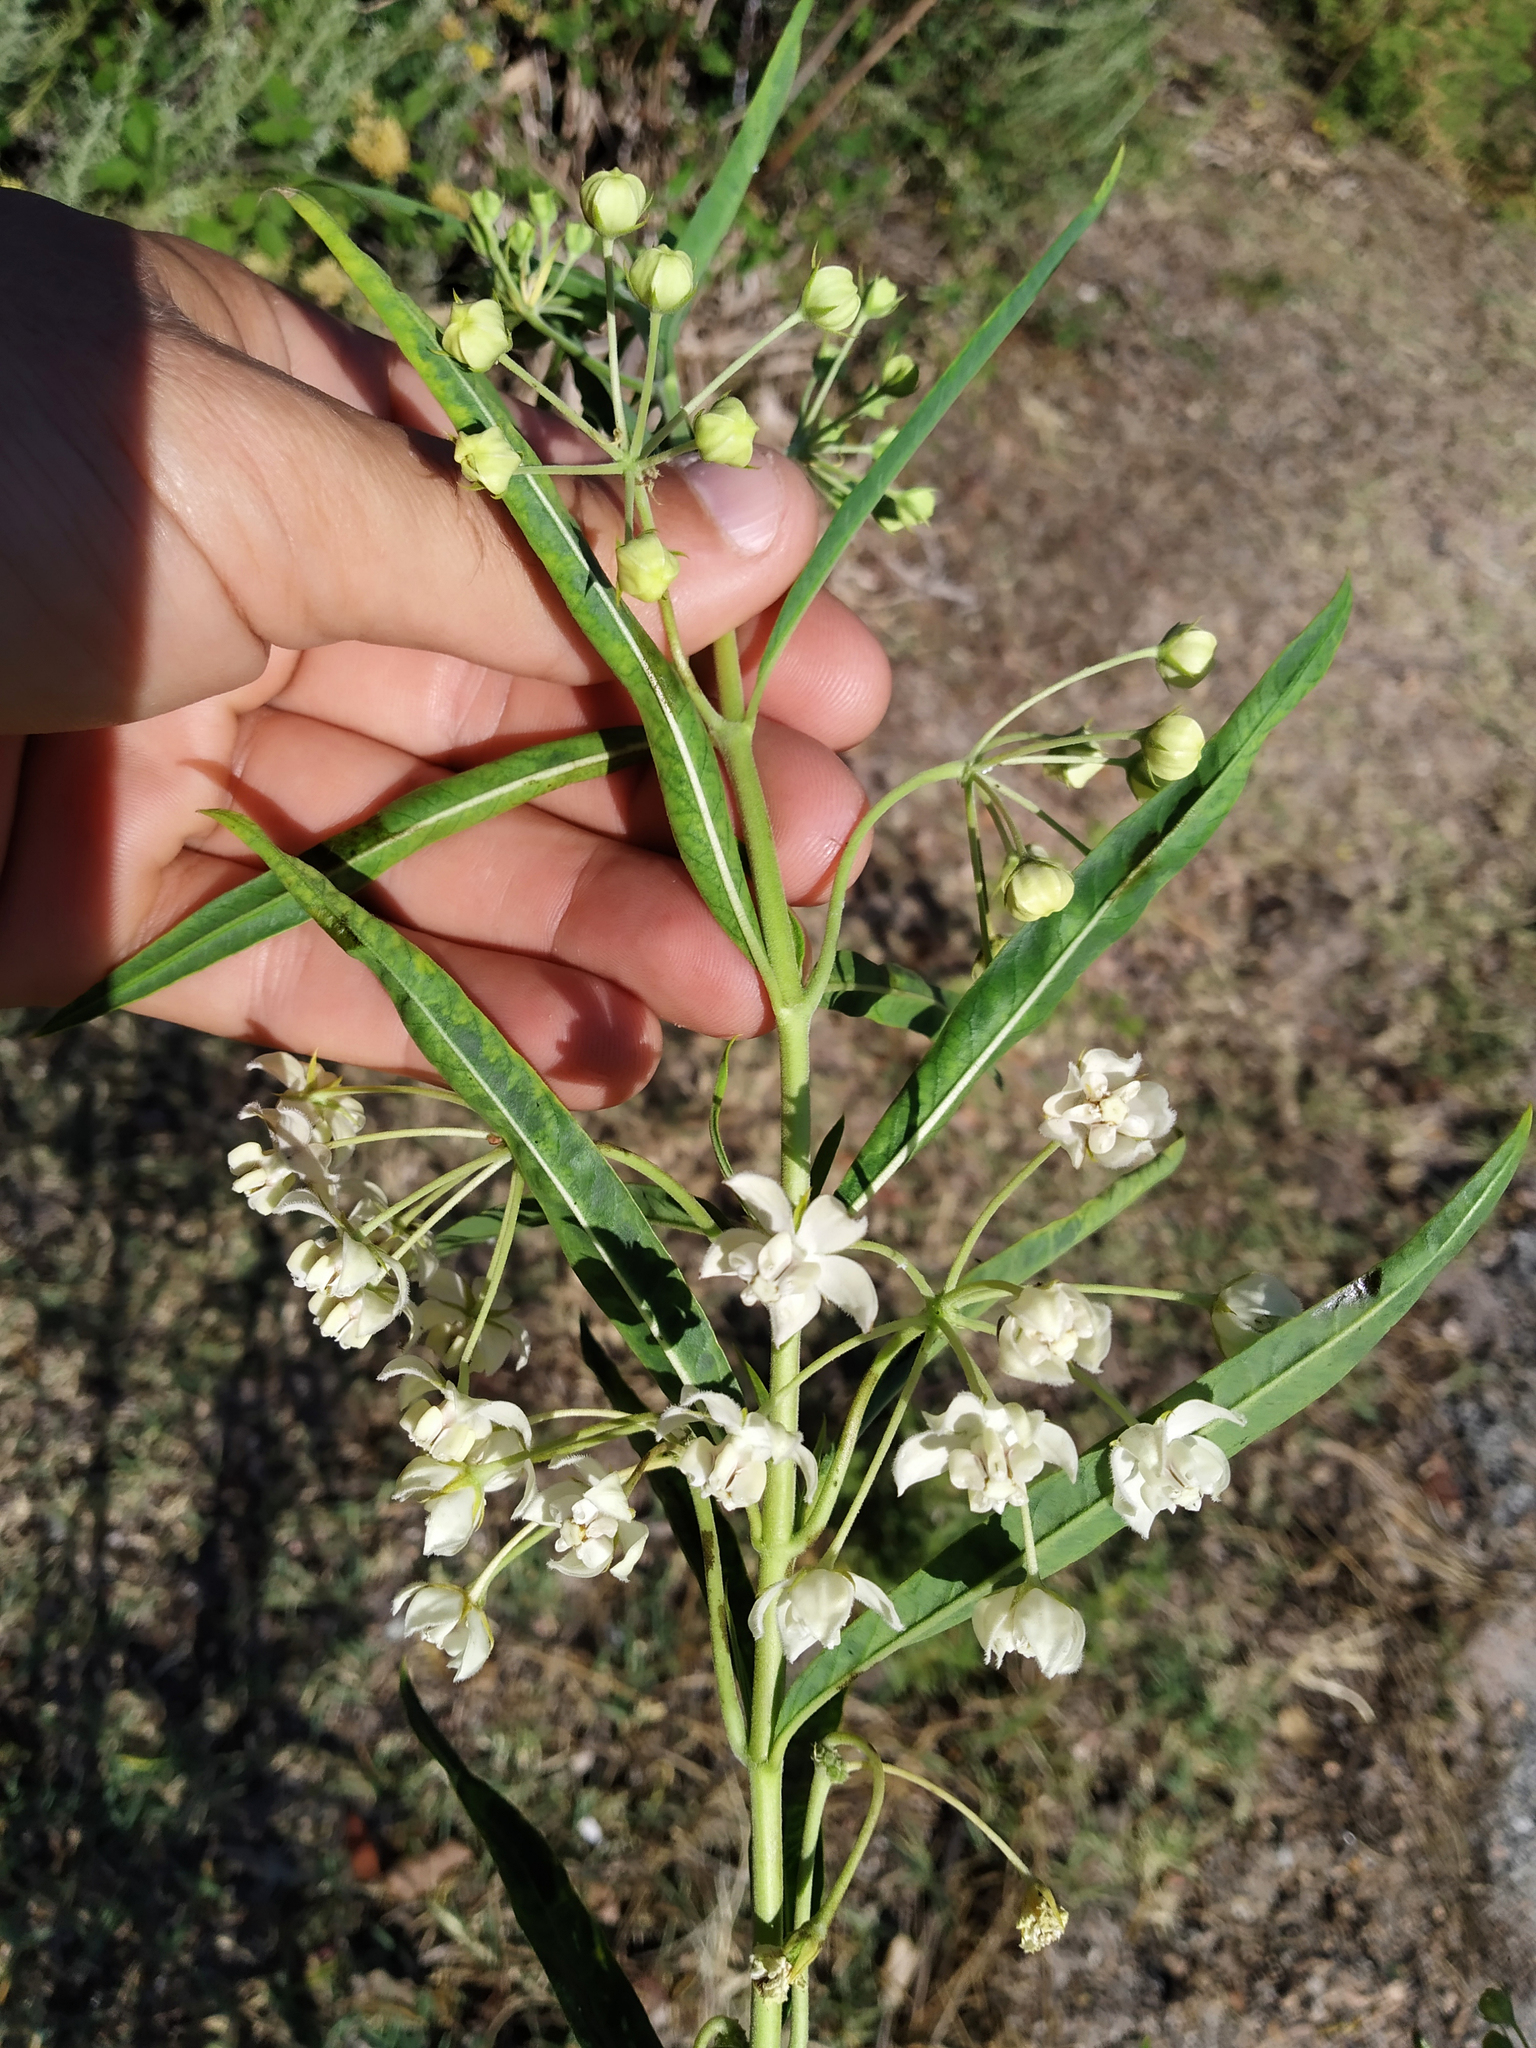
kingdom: Plantae
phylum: Tracheophyta
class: Magnoliopsida
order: Gentianales
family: Apocynaceae
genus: Gomphocarpus
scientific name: Gomphocarpus fruticosus
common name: Milkweed
